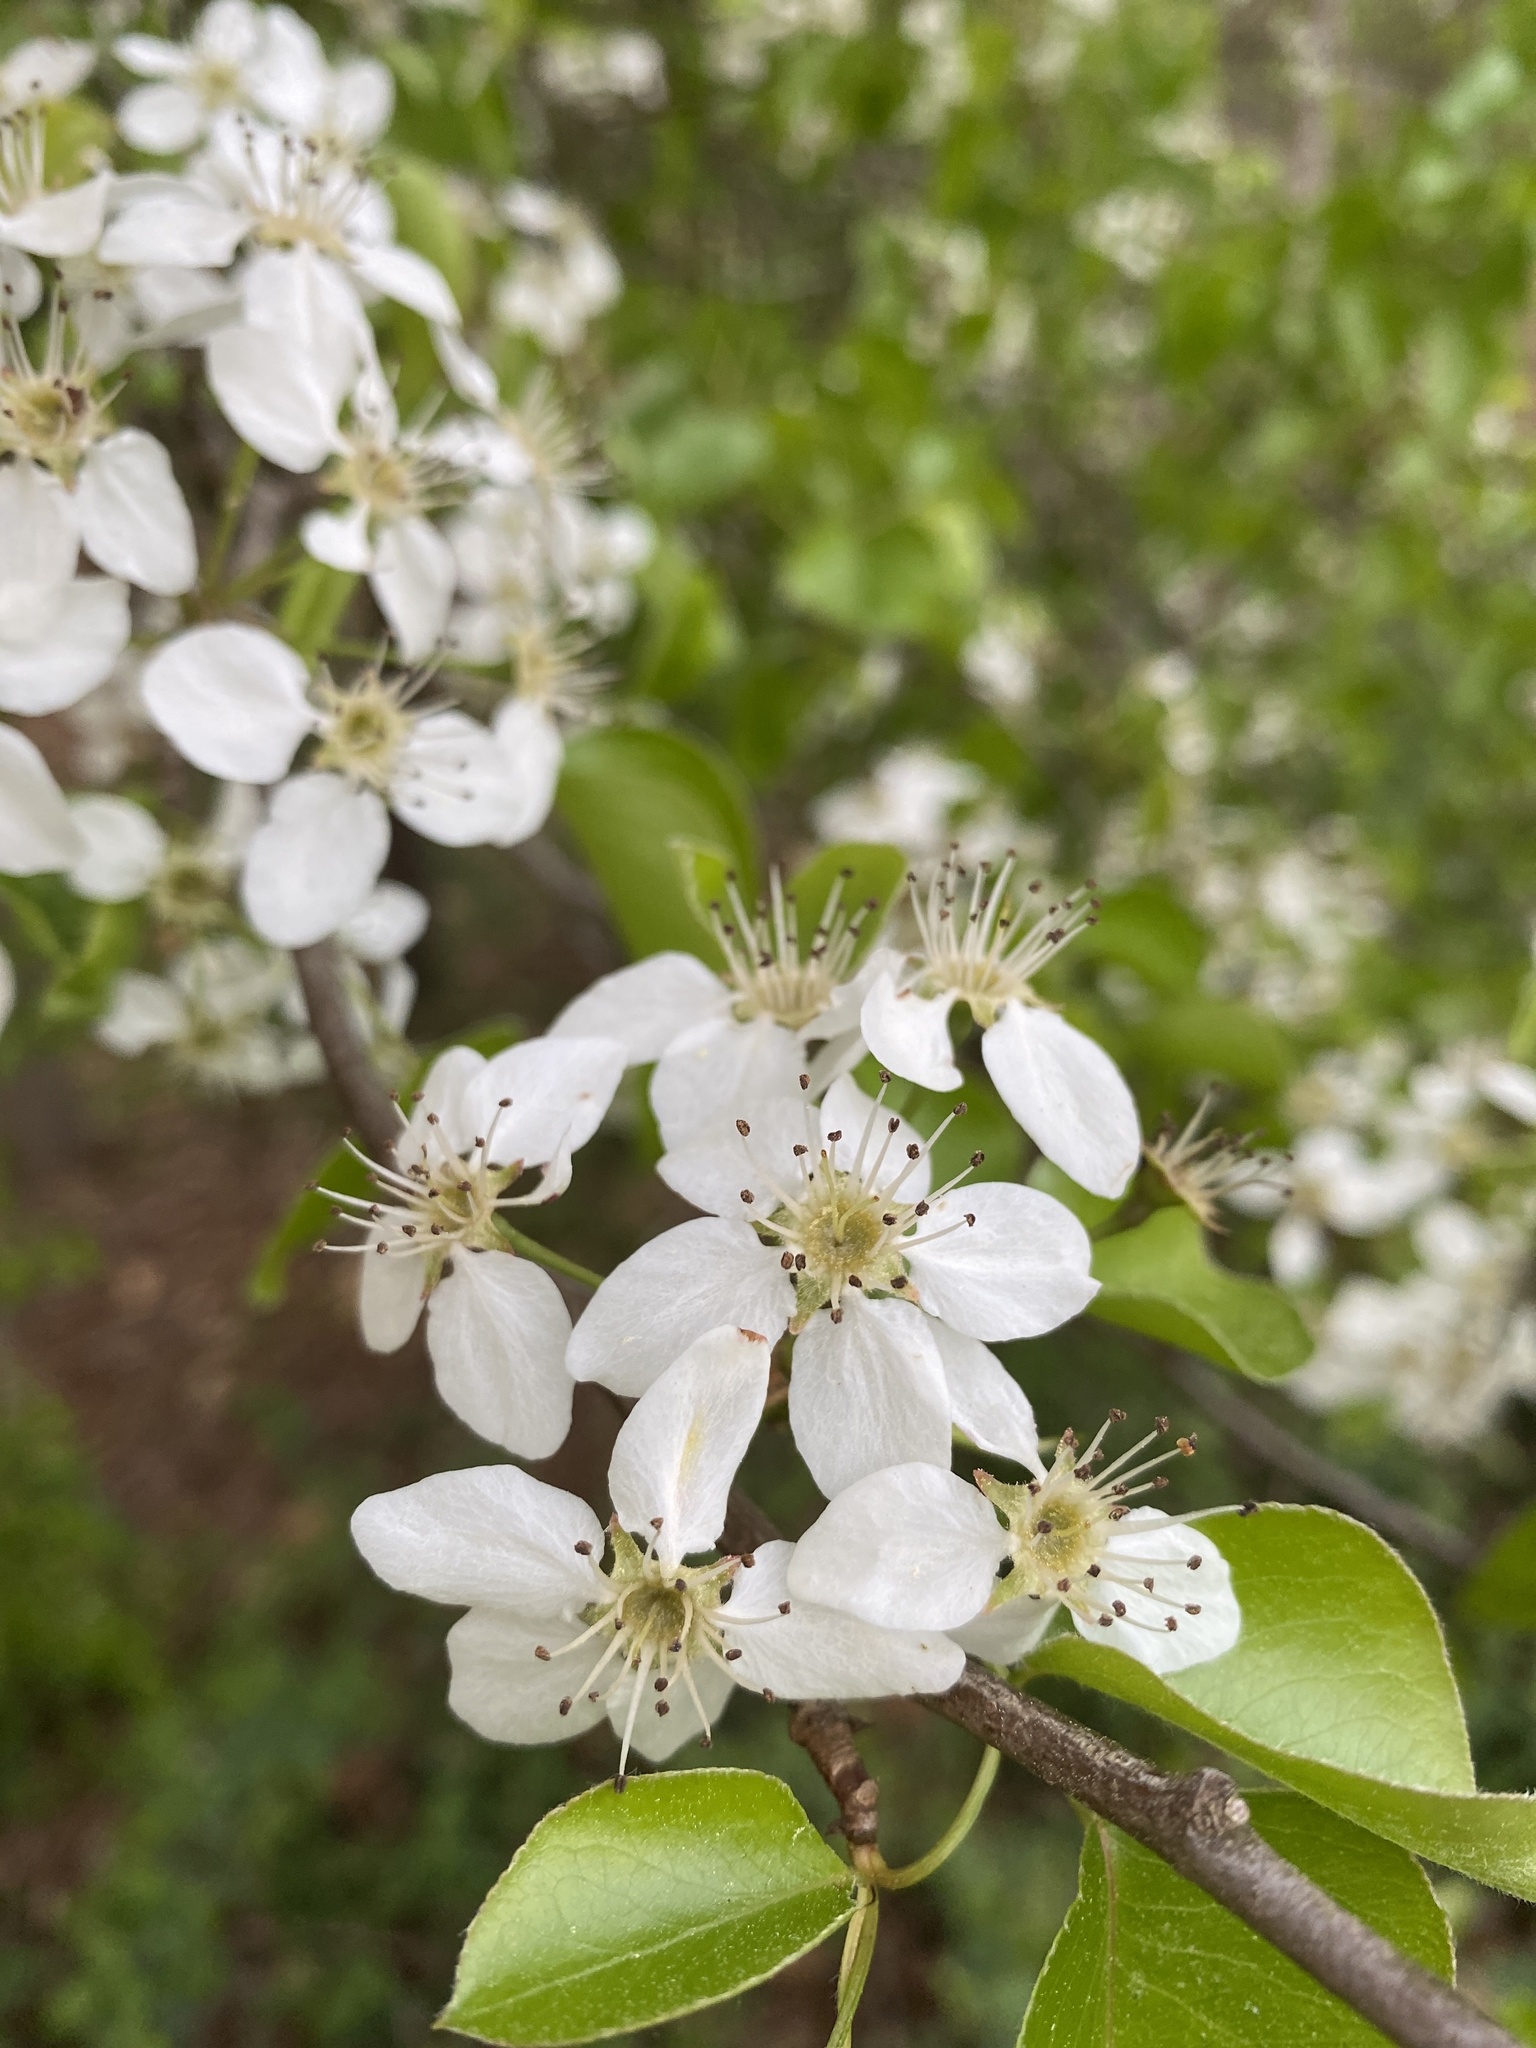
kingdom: Plantae
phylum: Tracheophyta
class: Magnoliopsida
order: Rosales
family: Rosaceae
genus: Pyrus
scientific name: Pyrus calleryana
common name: Callery pear
